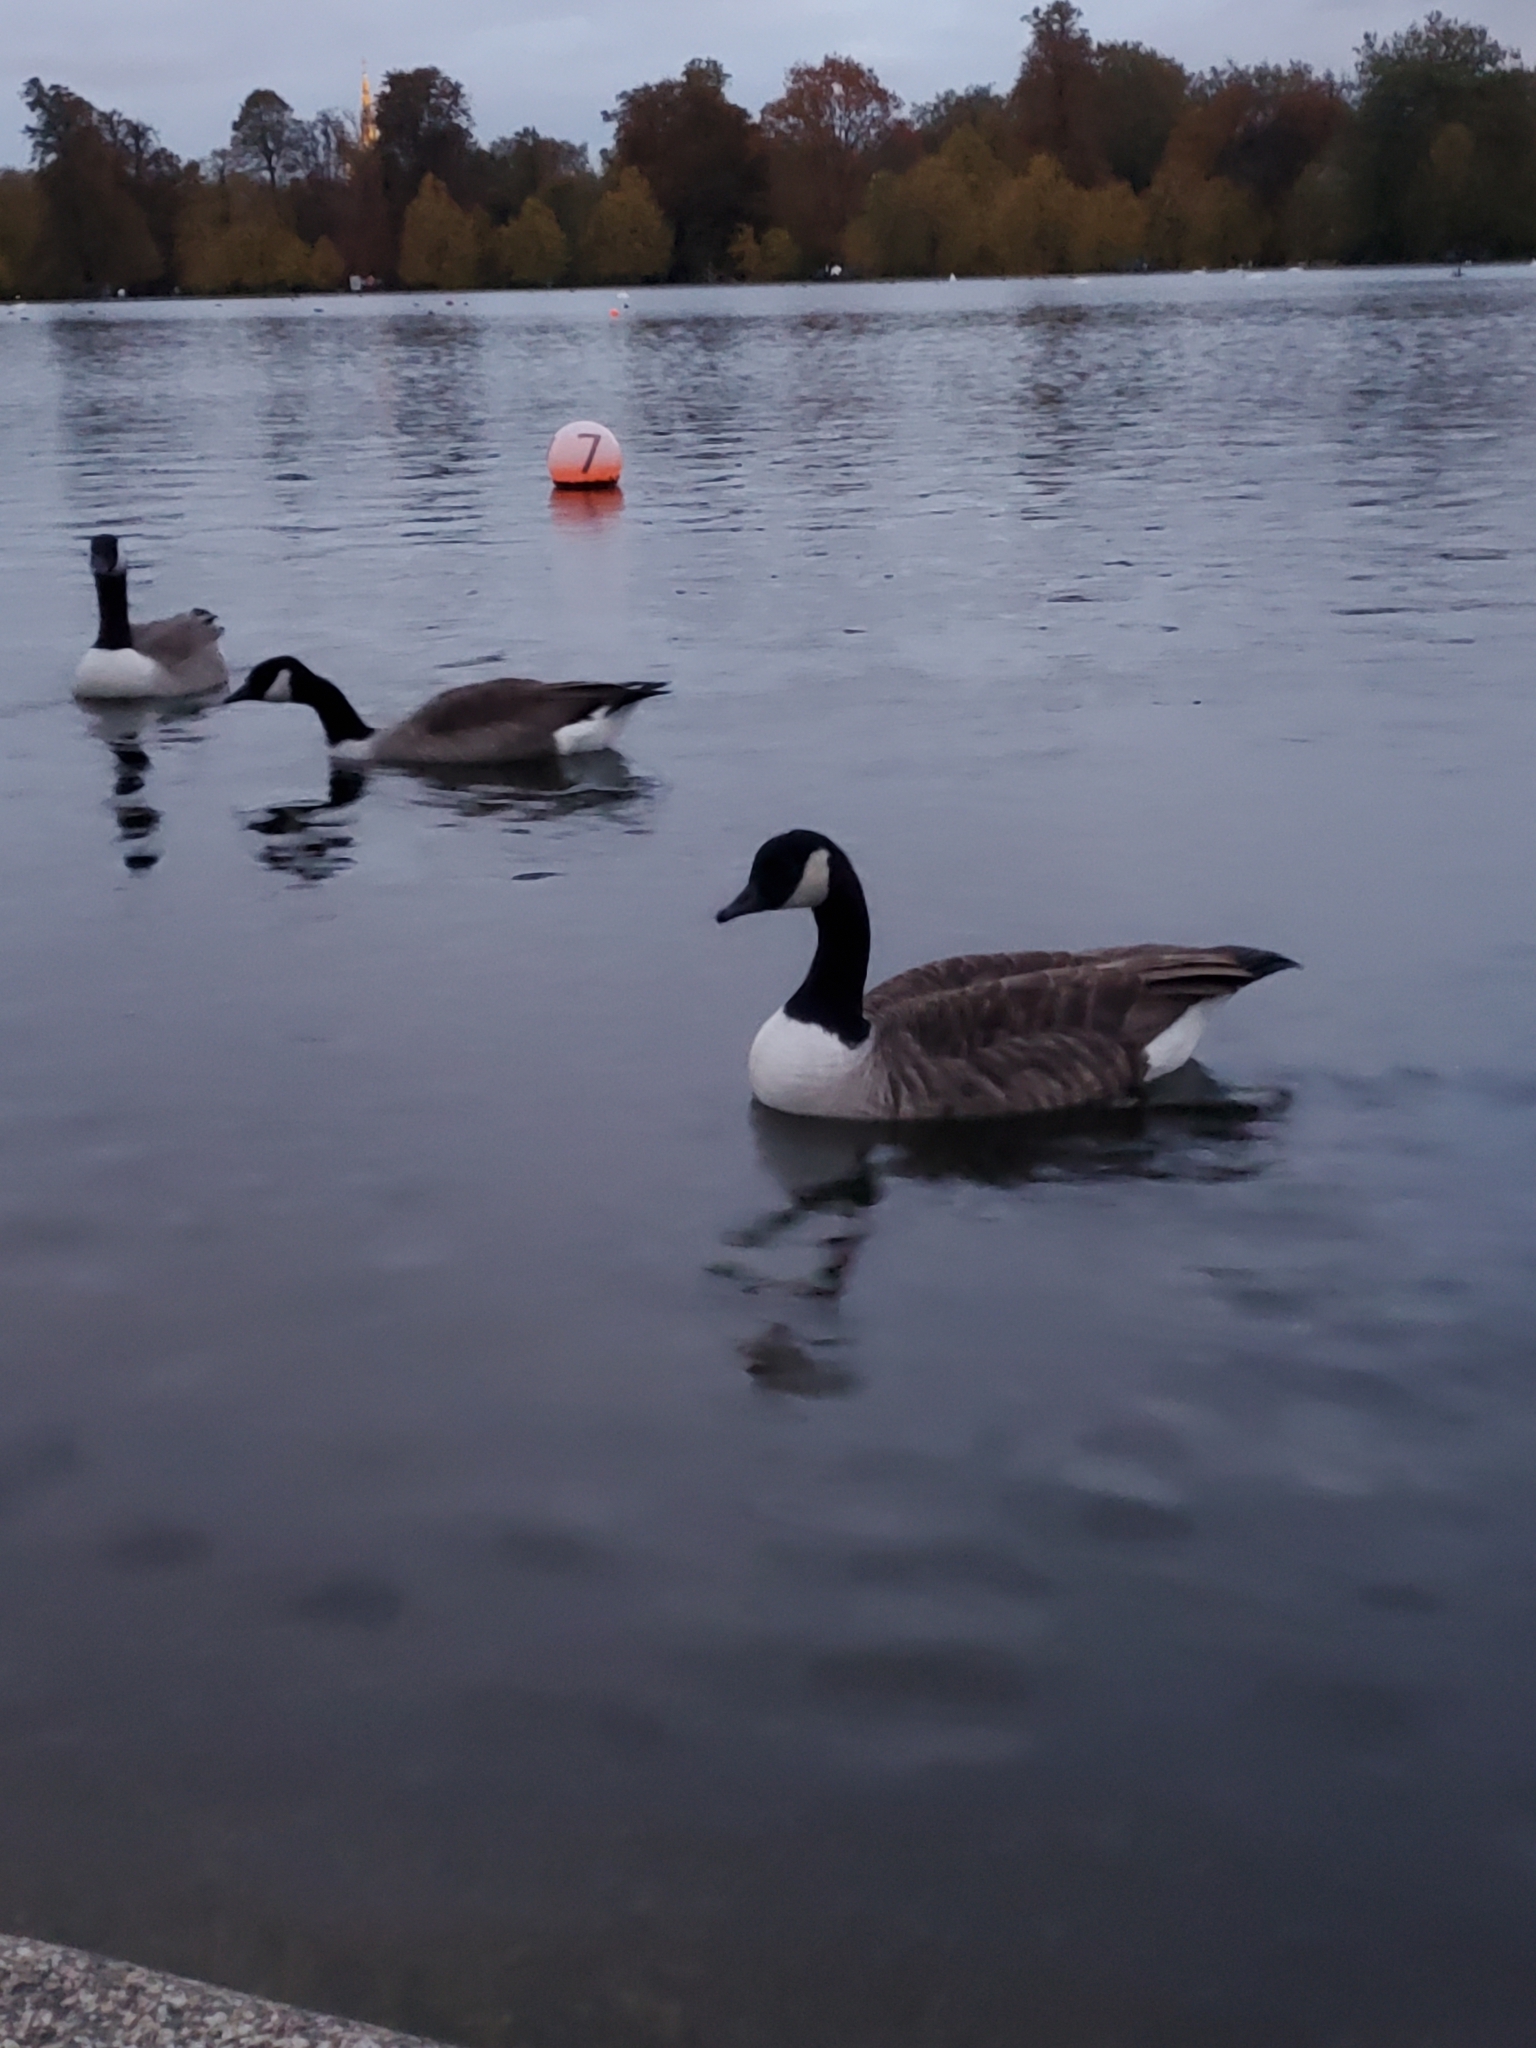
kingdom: Animalia
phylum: Chordata
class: Aves
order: Anseriformes
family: Anatidae
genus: Branta
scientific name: Branta canadensis
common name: Canada goose
